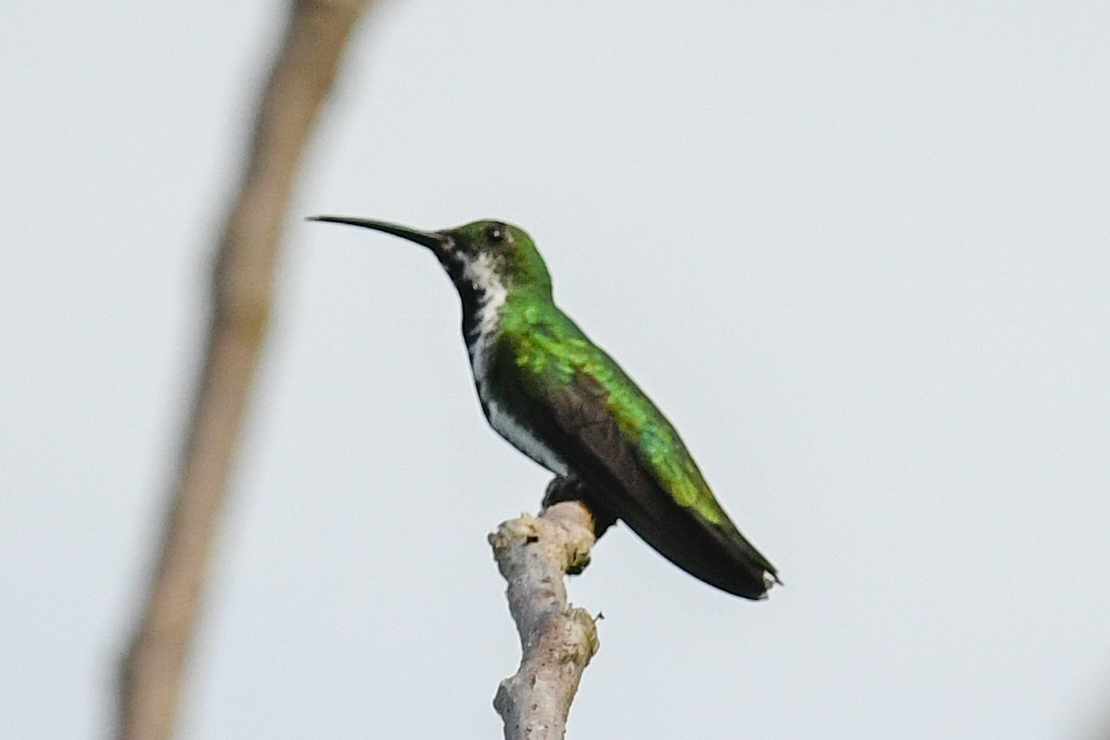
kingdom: Animalia
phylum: Chordata
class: Aves
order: Apodiformes
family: Trochilidae
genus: Anthracothorax
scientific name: Anthracothorax prevostii
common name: Green-breasted mango
